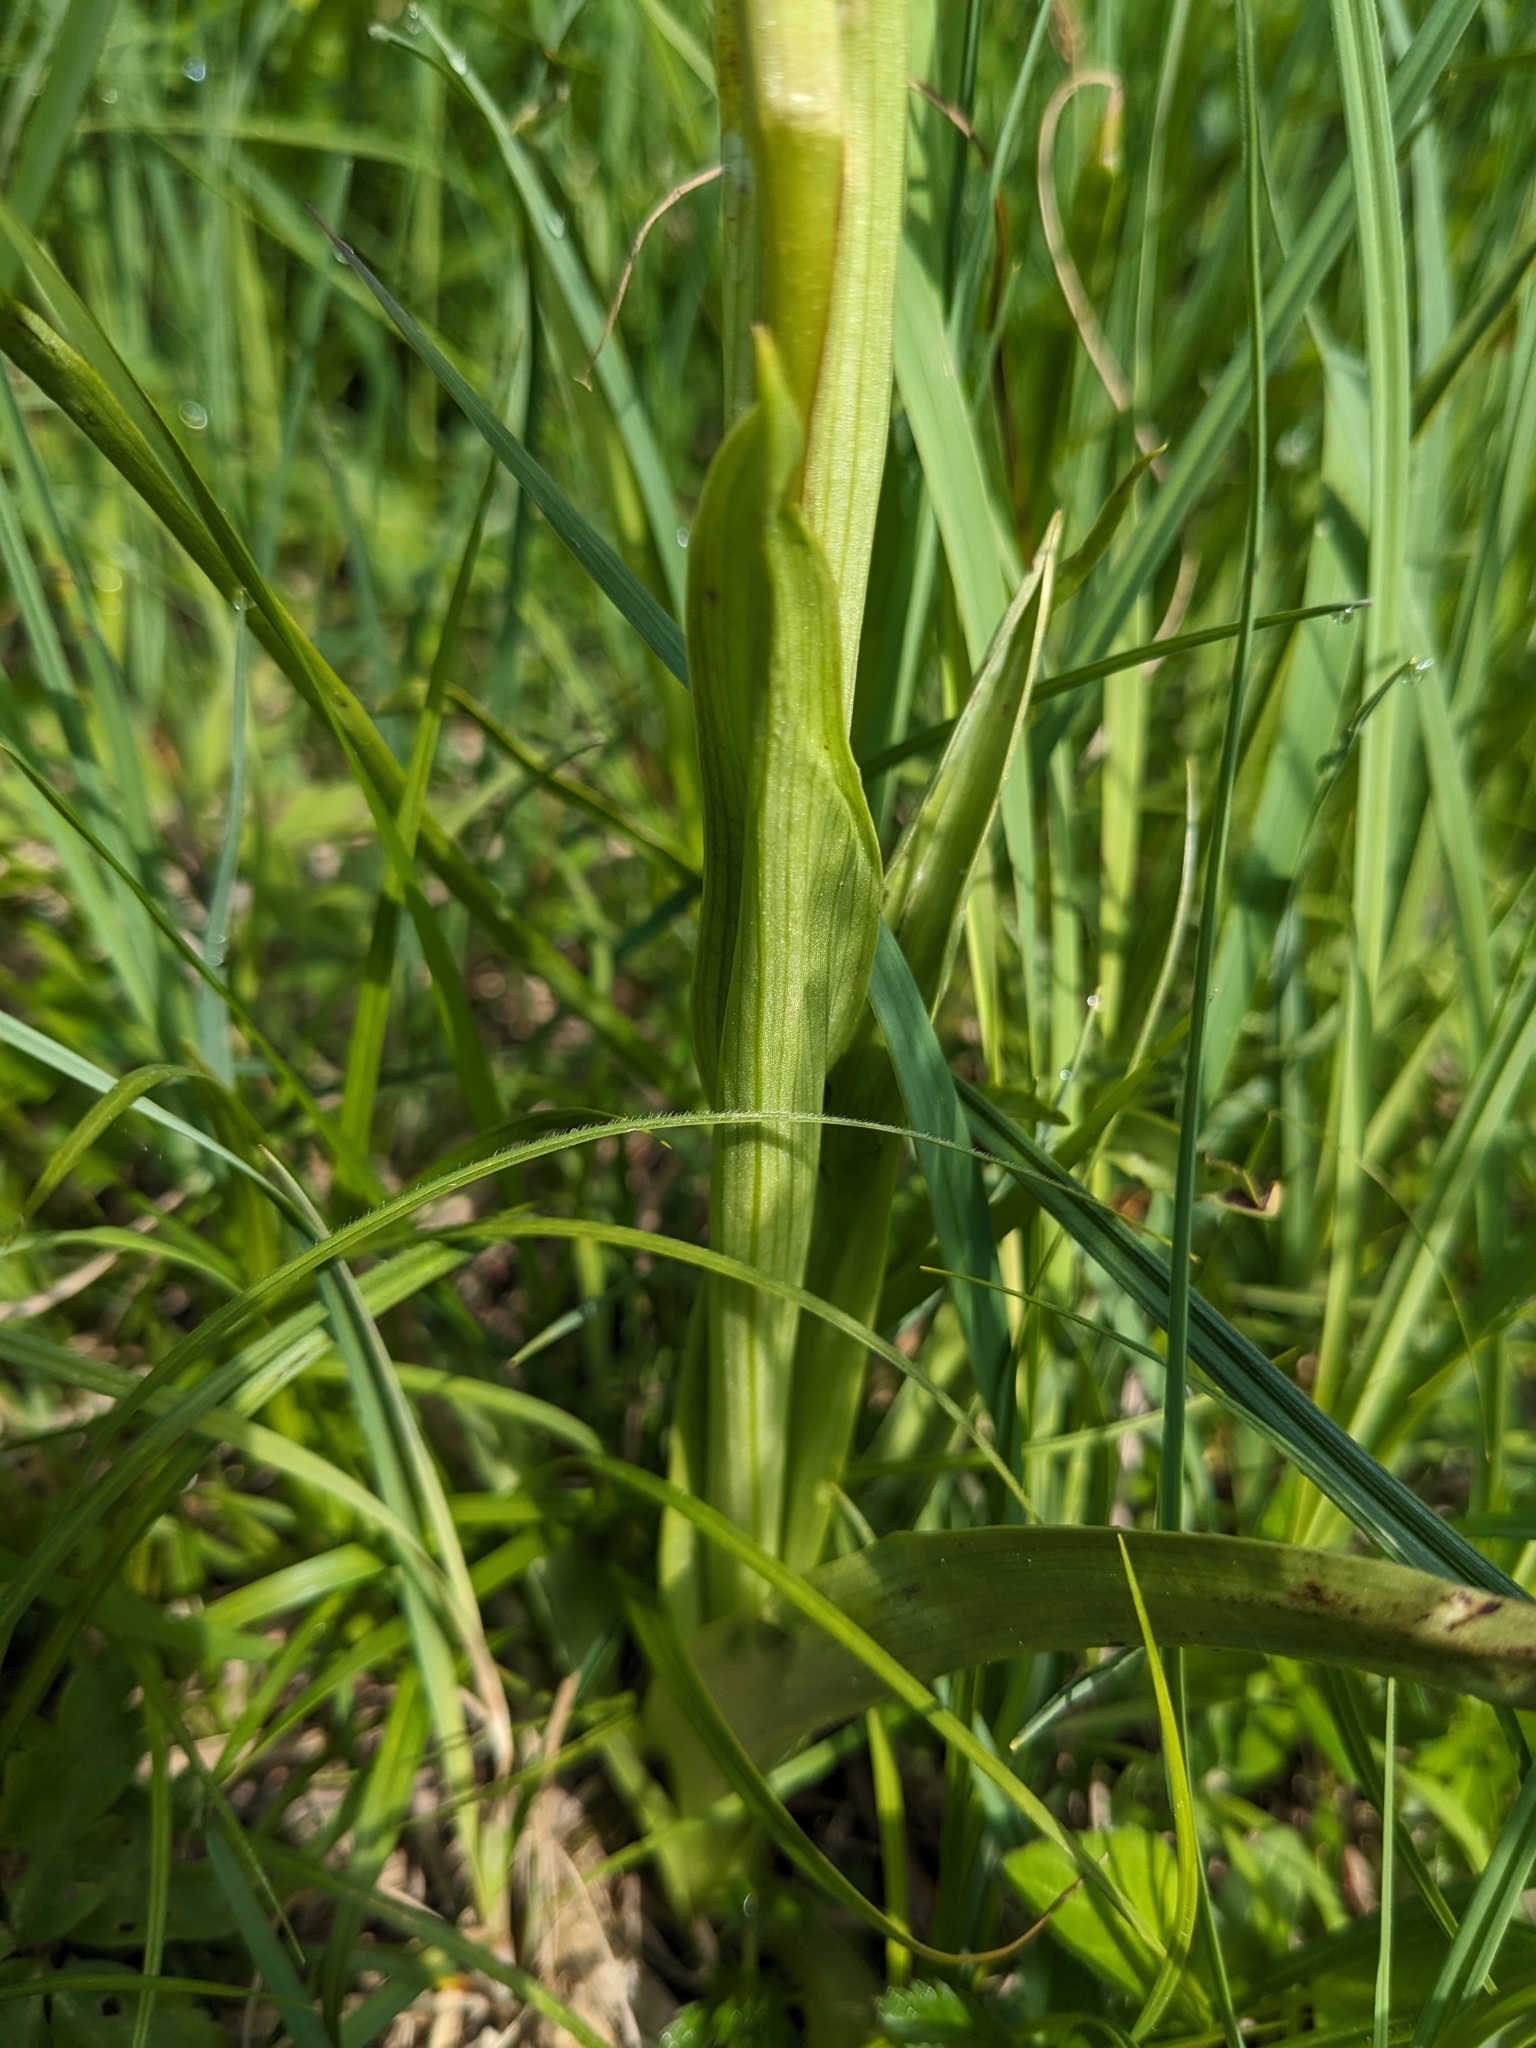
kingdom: Plantae
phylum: Tracheophyta
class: Liliopsida
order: Asparagales
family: Orchidaceae
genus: Anacamptis
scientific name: Anacamptis pyramidalis
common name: Pyramidal orchid
